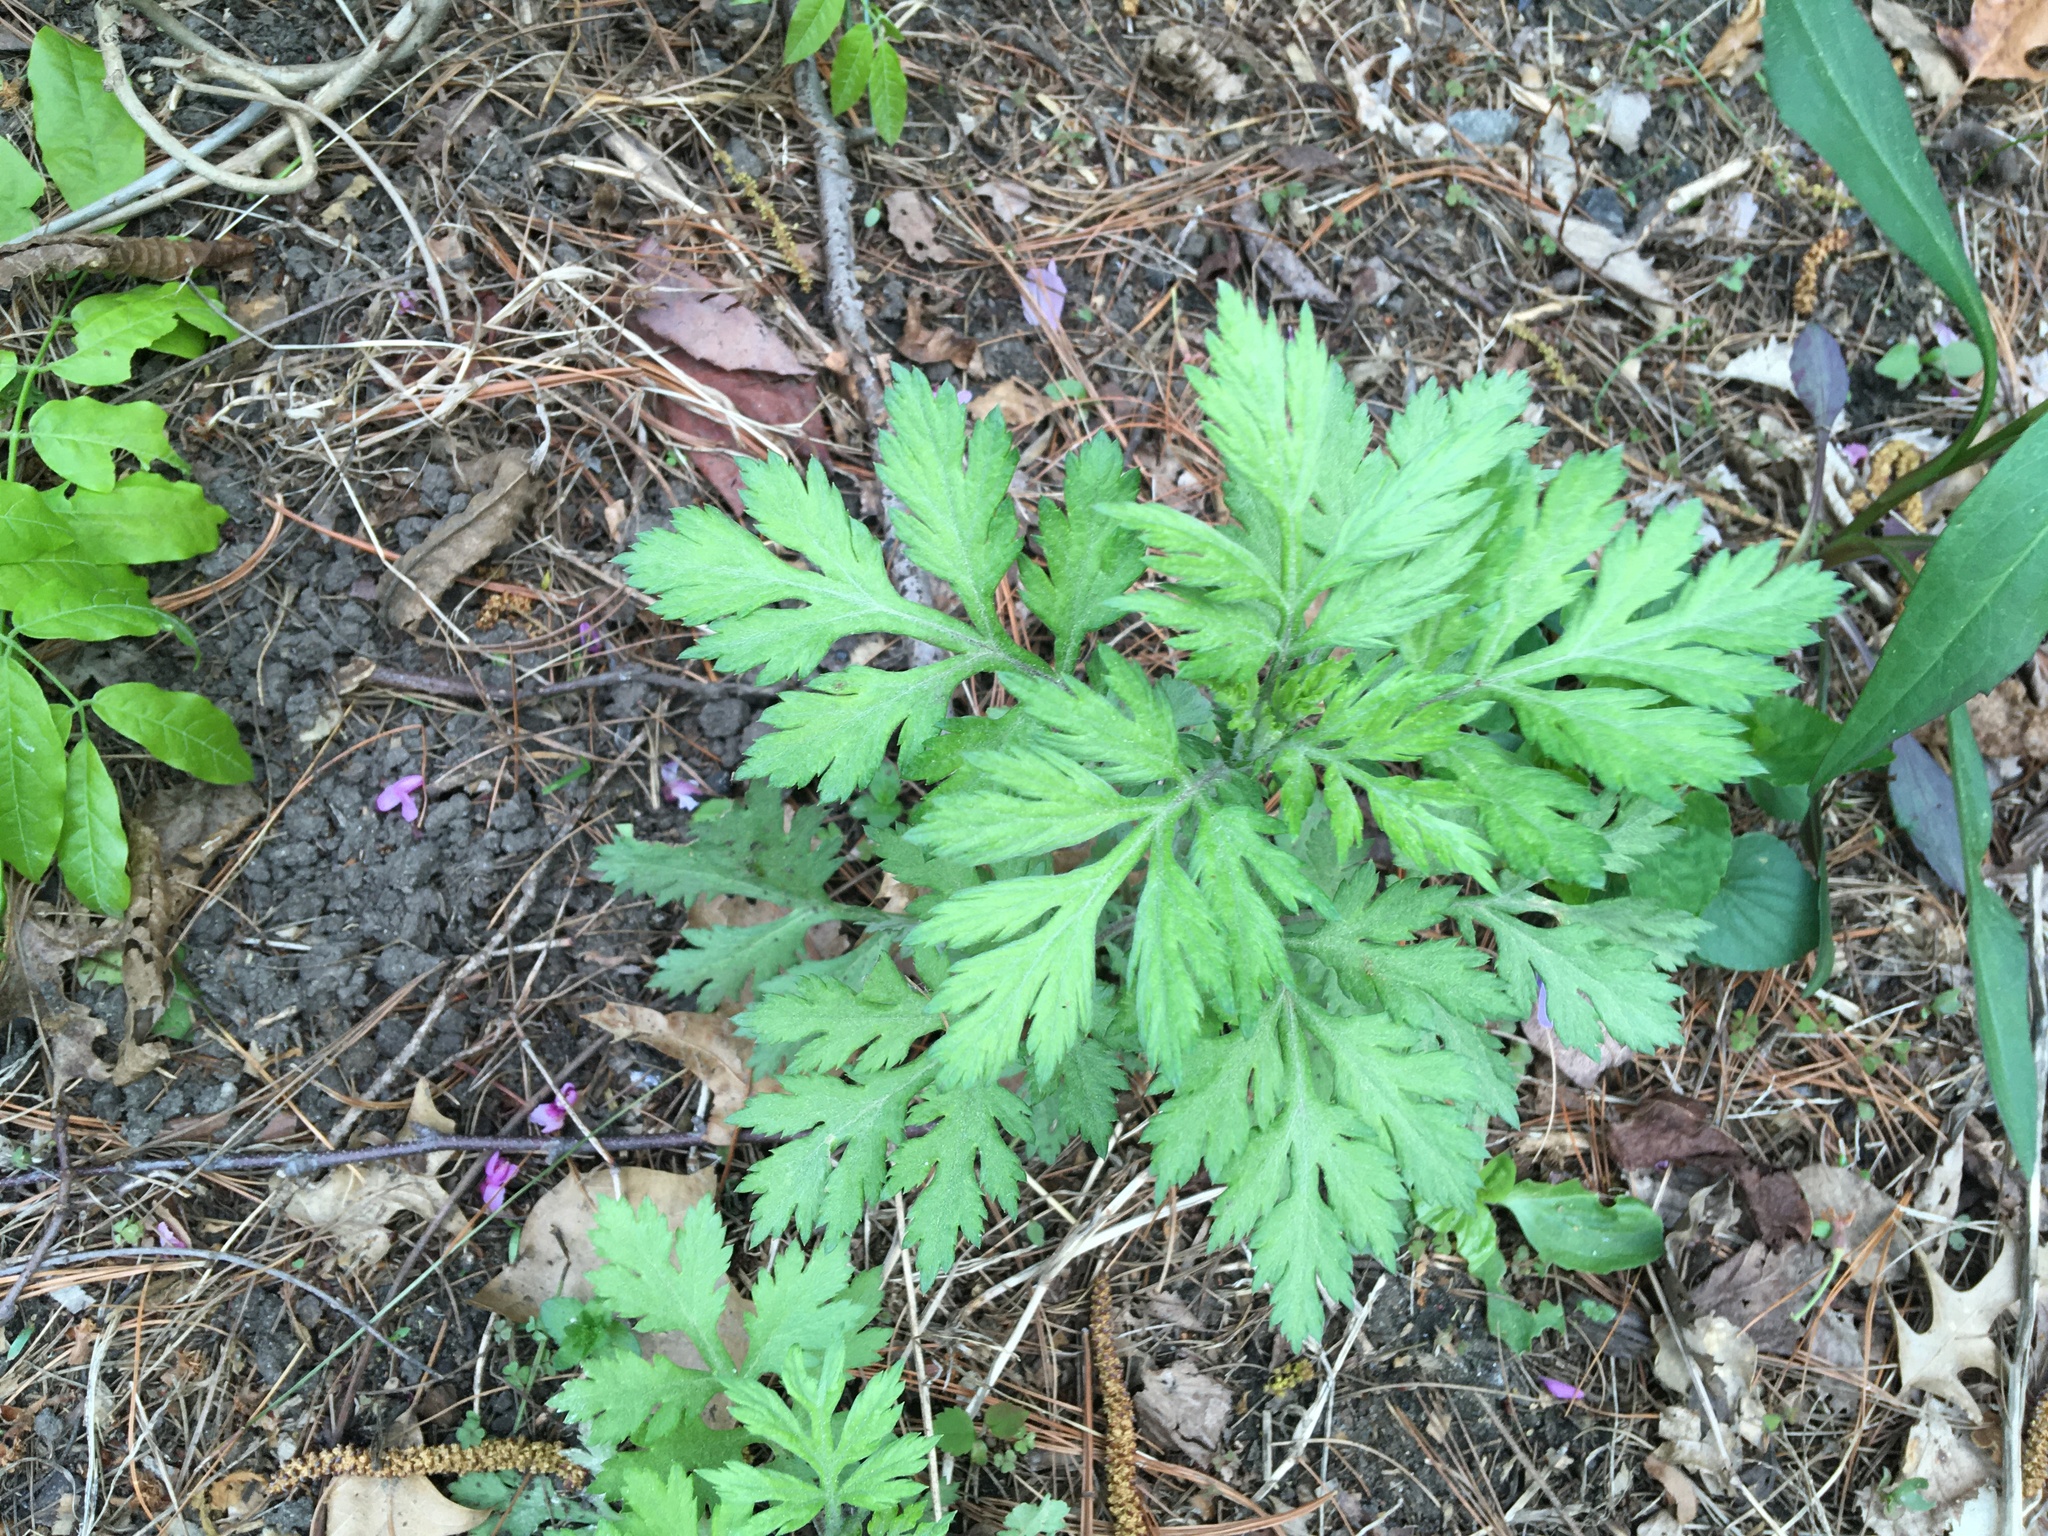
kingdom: Plantae
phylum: Tracheophyta
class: Magnoliopsida
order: Asterales
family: Asteraceae
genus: Artemisia
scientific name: Artemisia vulgaris
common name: Mugwort
